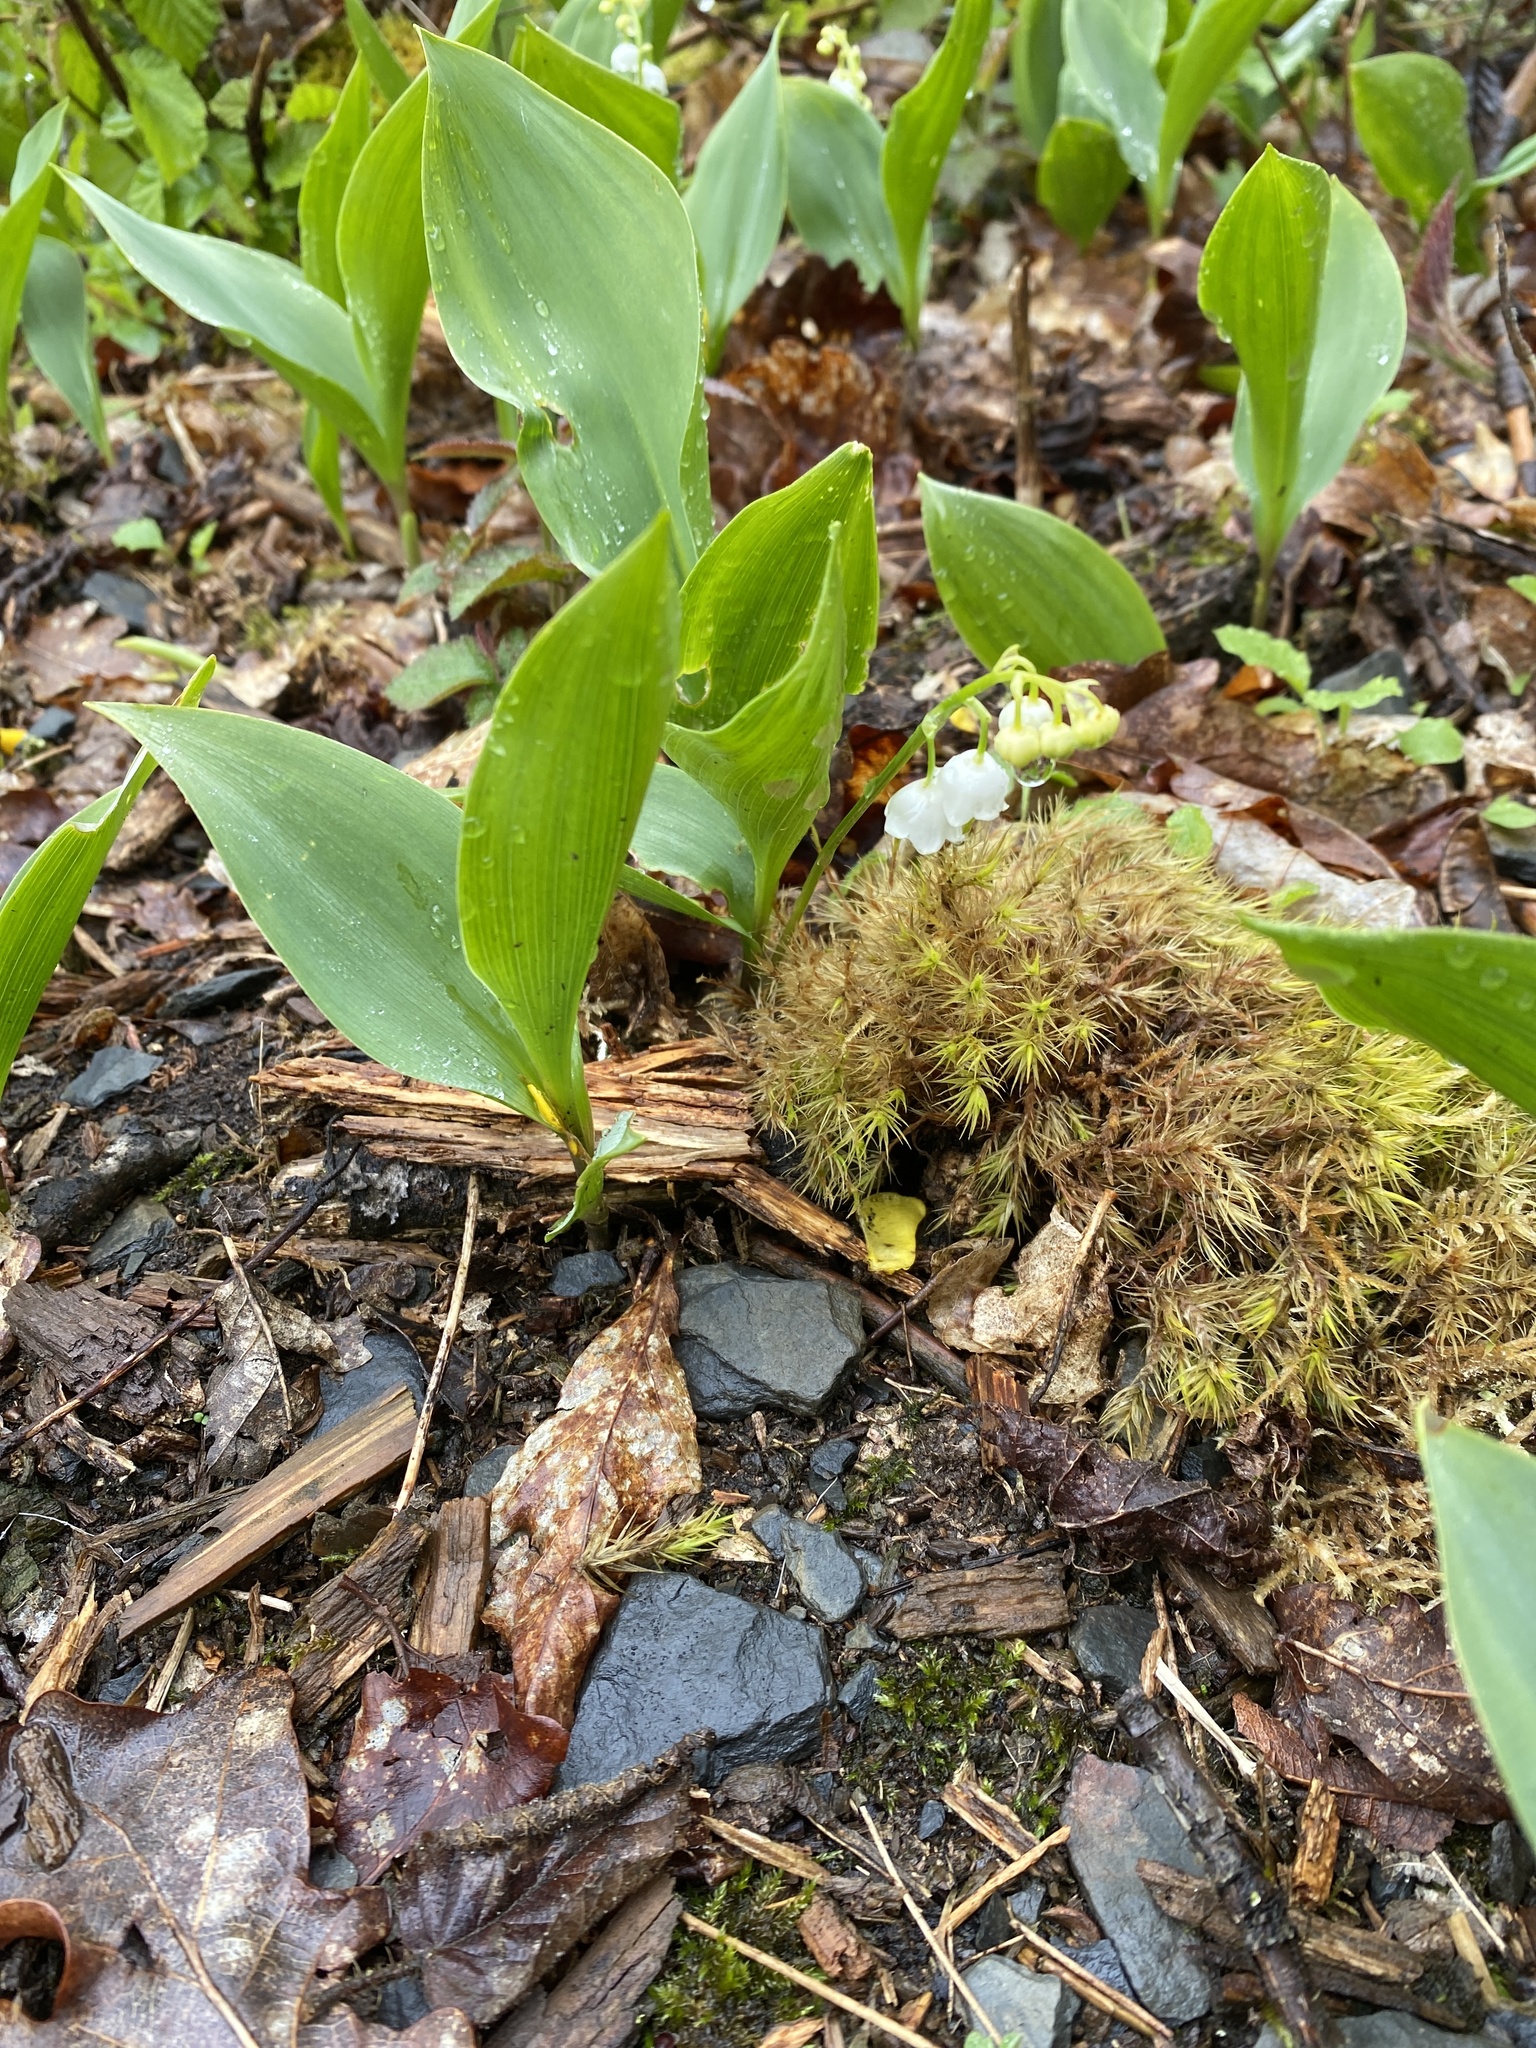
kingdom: Plantae
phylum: Tracheophyta
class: Liliopsida
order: Asparagales
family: Asparagaceae
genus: Convallaria
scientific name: Convallaria majalis
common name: Lily-of-the-valley
